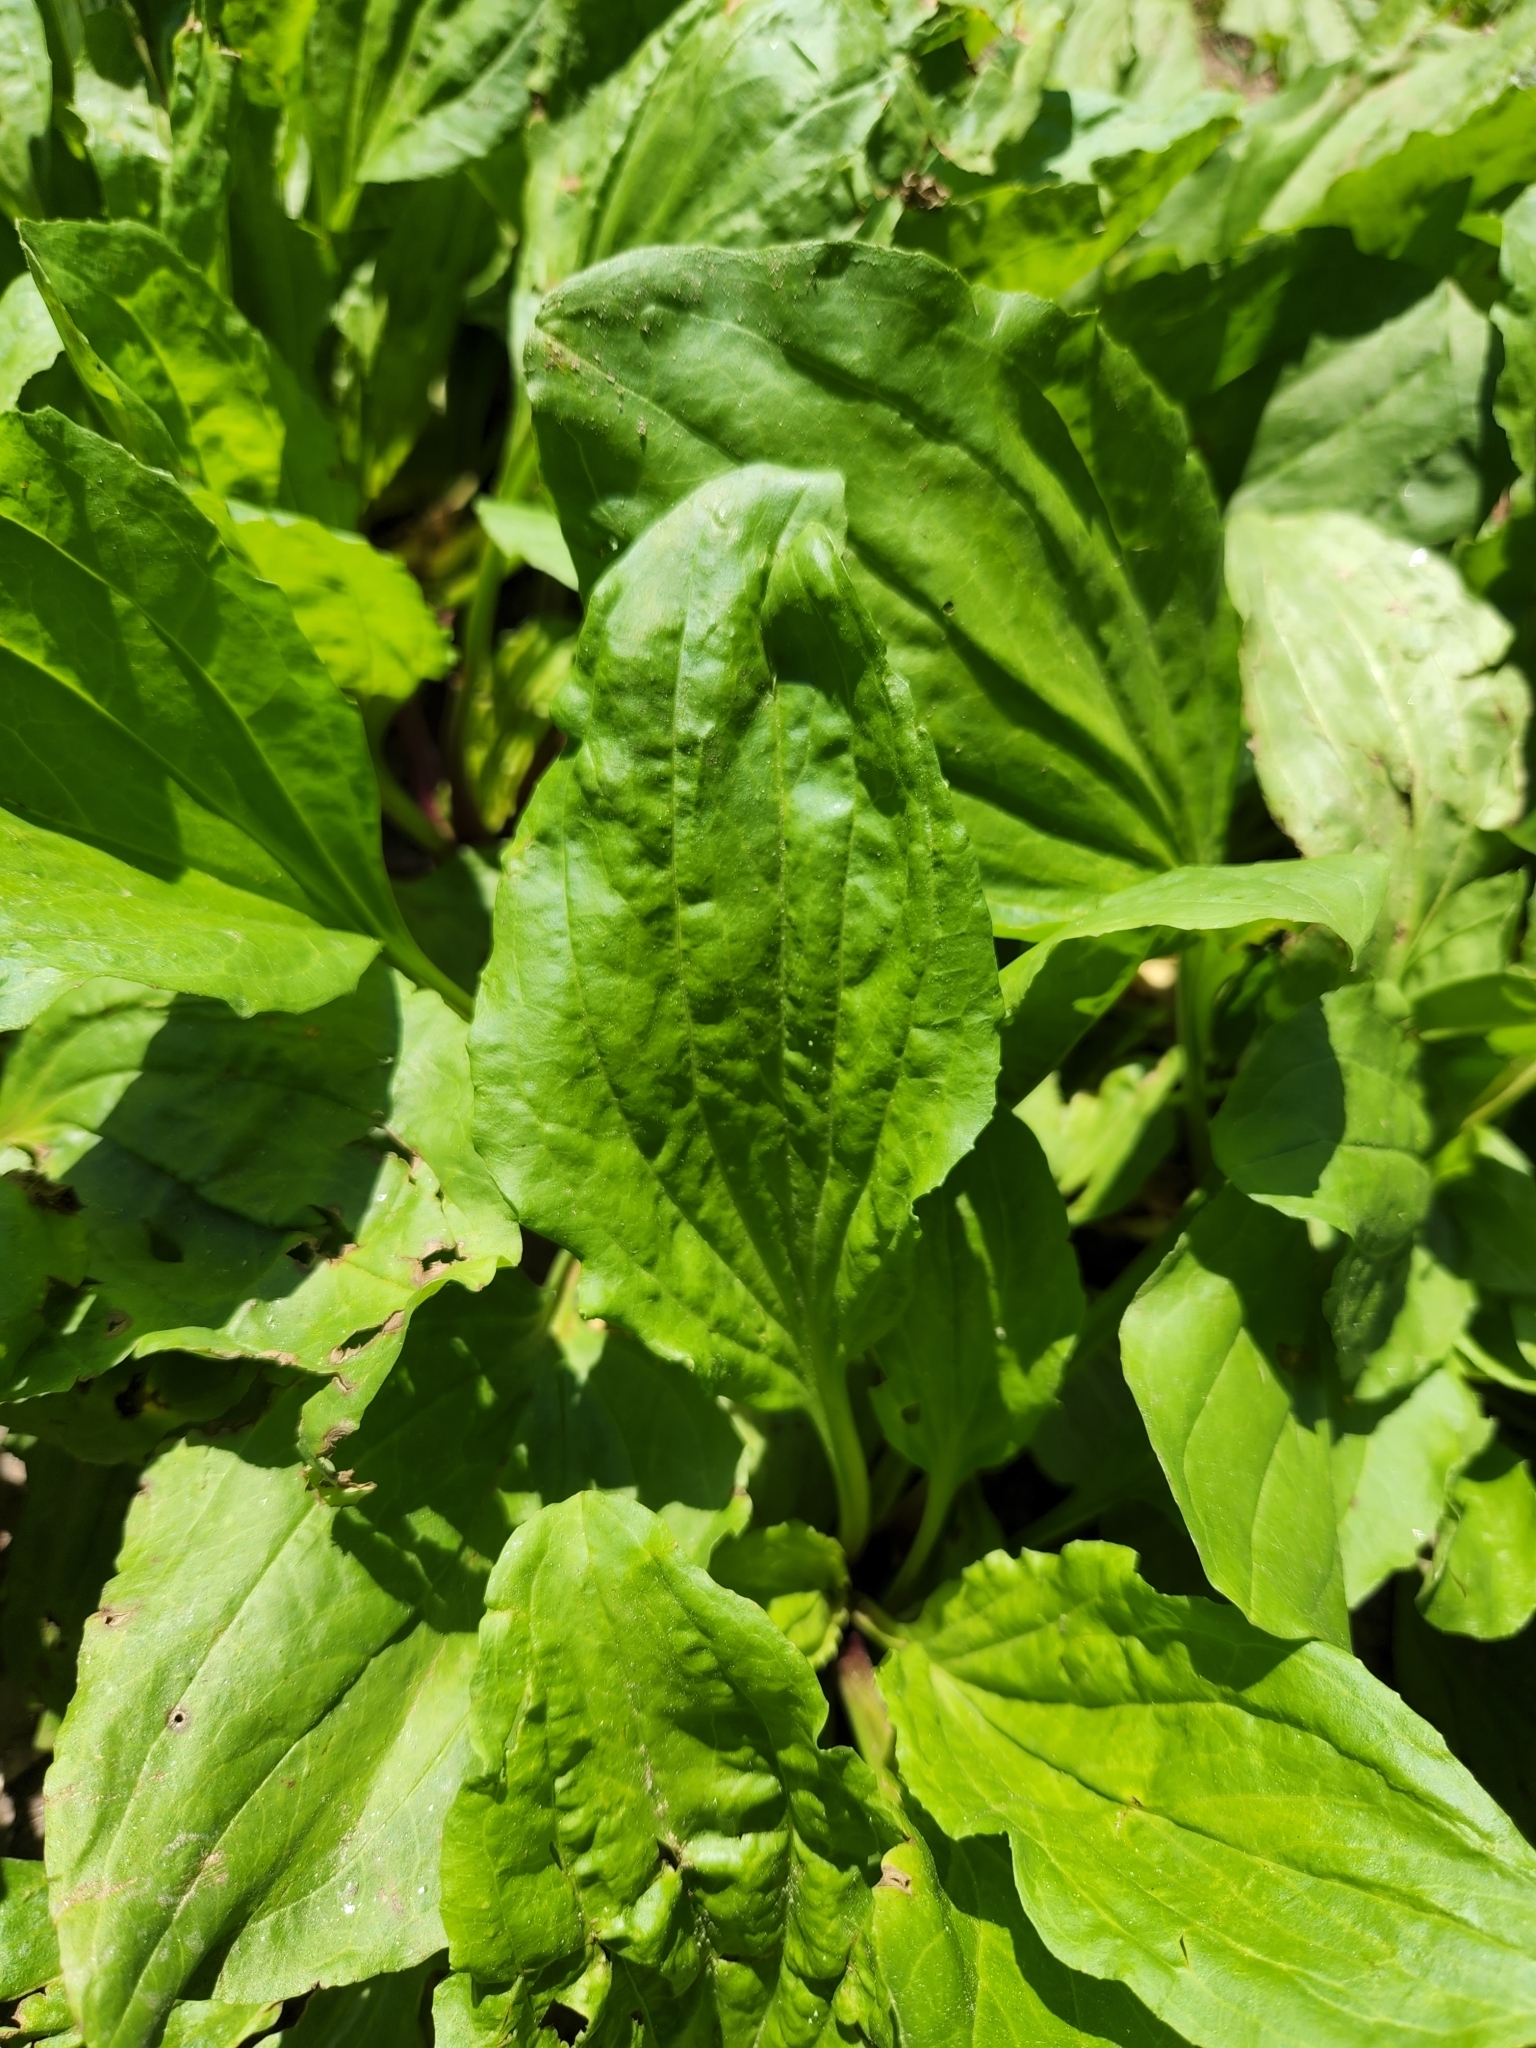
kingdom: Plantae
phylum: Tracheophyta
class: Magnoliopsida
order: Lamiales
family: Plantaginaceae
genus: Plantago
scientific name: Plantago rugelii
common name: American plantain
